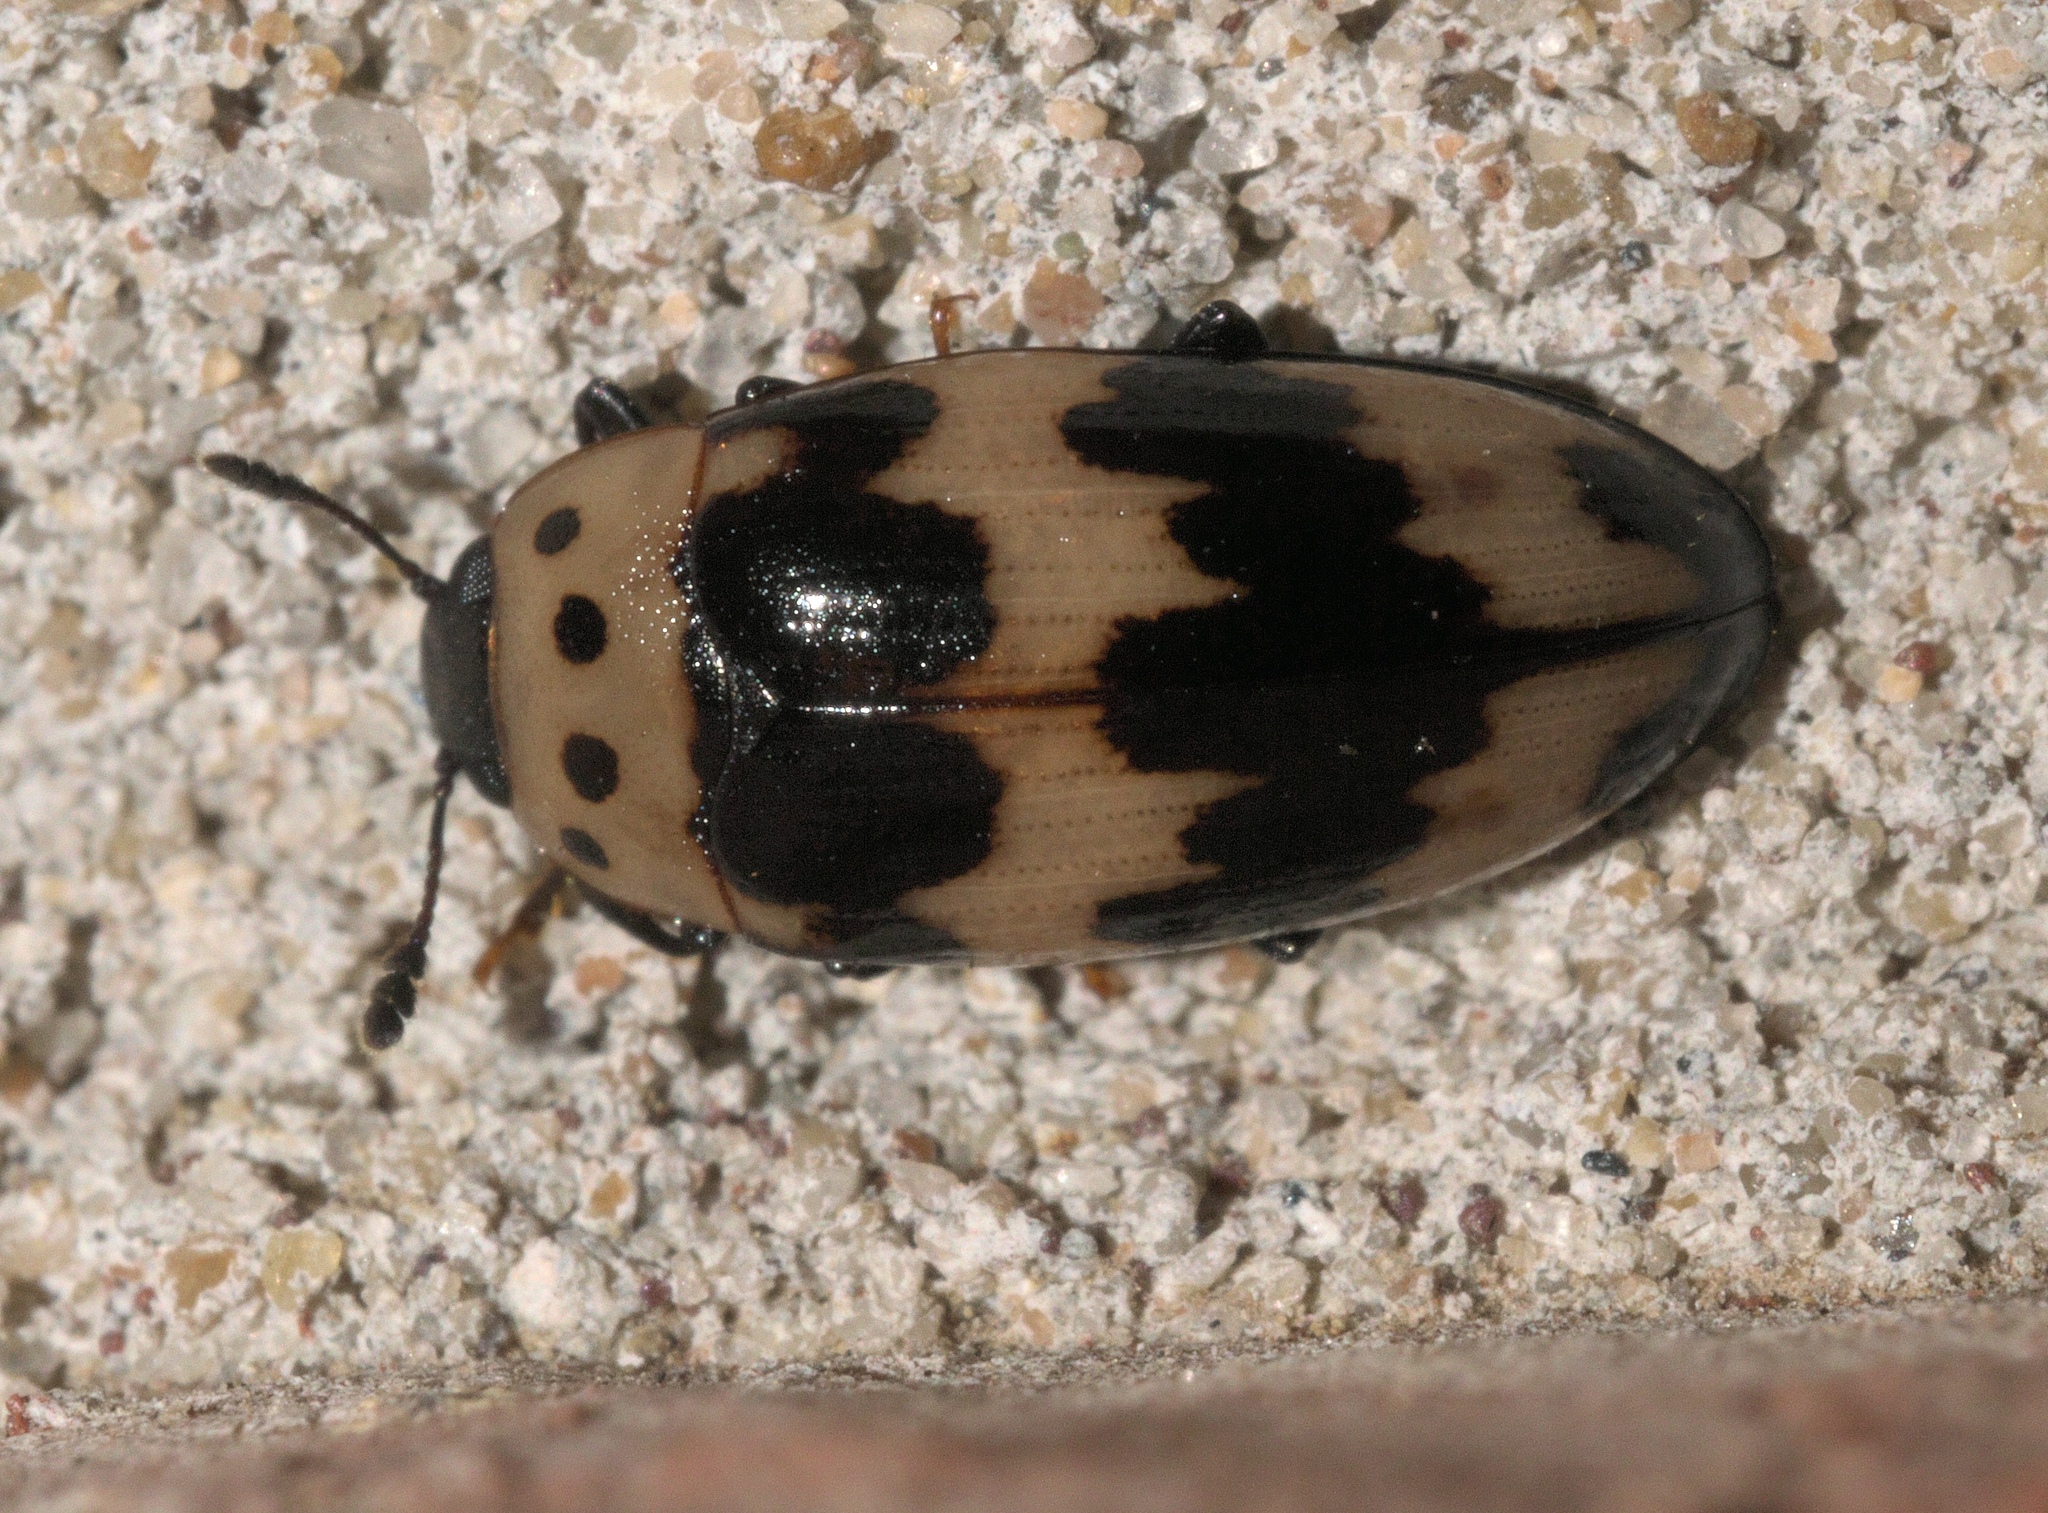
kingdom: Animalia
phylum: Arthropoda
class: Insecta
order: Coleoptera
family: Erotylidae
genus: Ischyrus
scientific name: Ischyrus quadripunctatus
